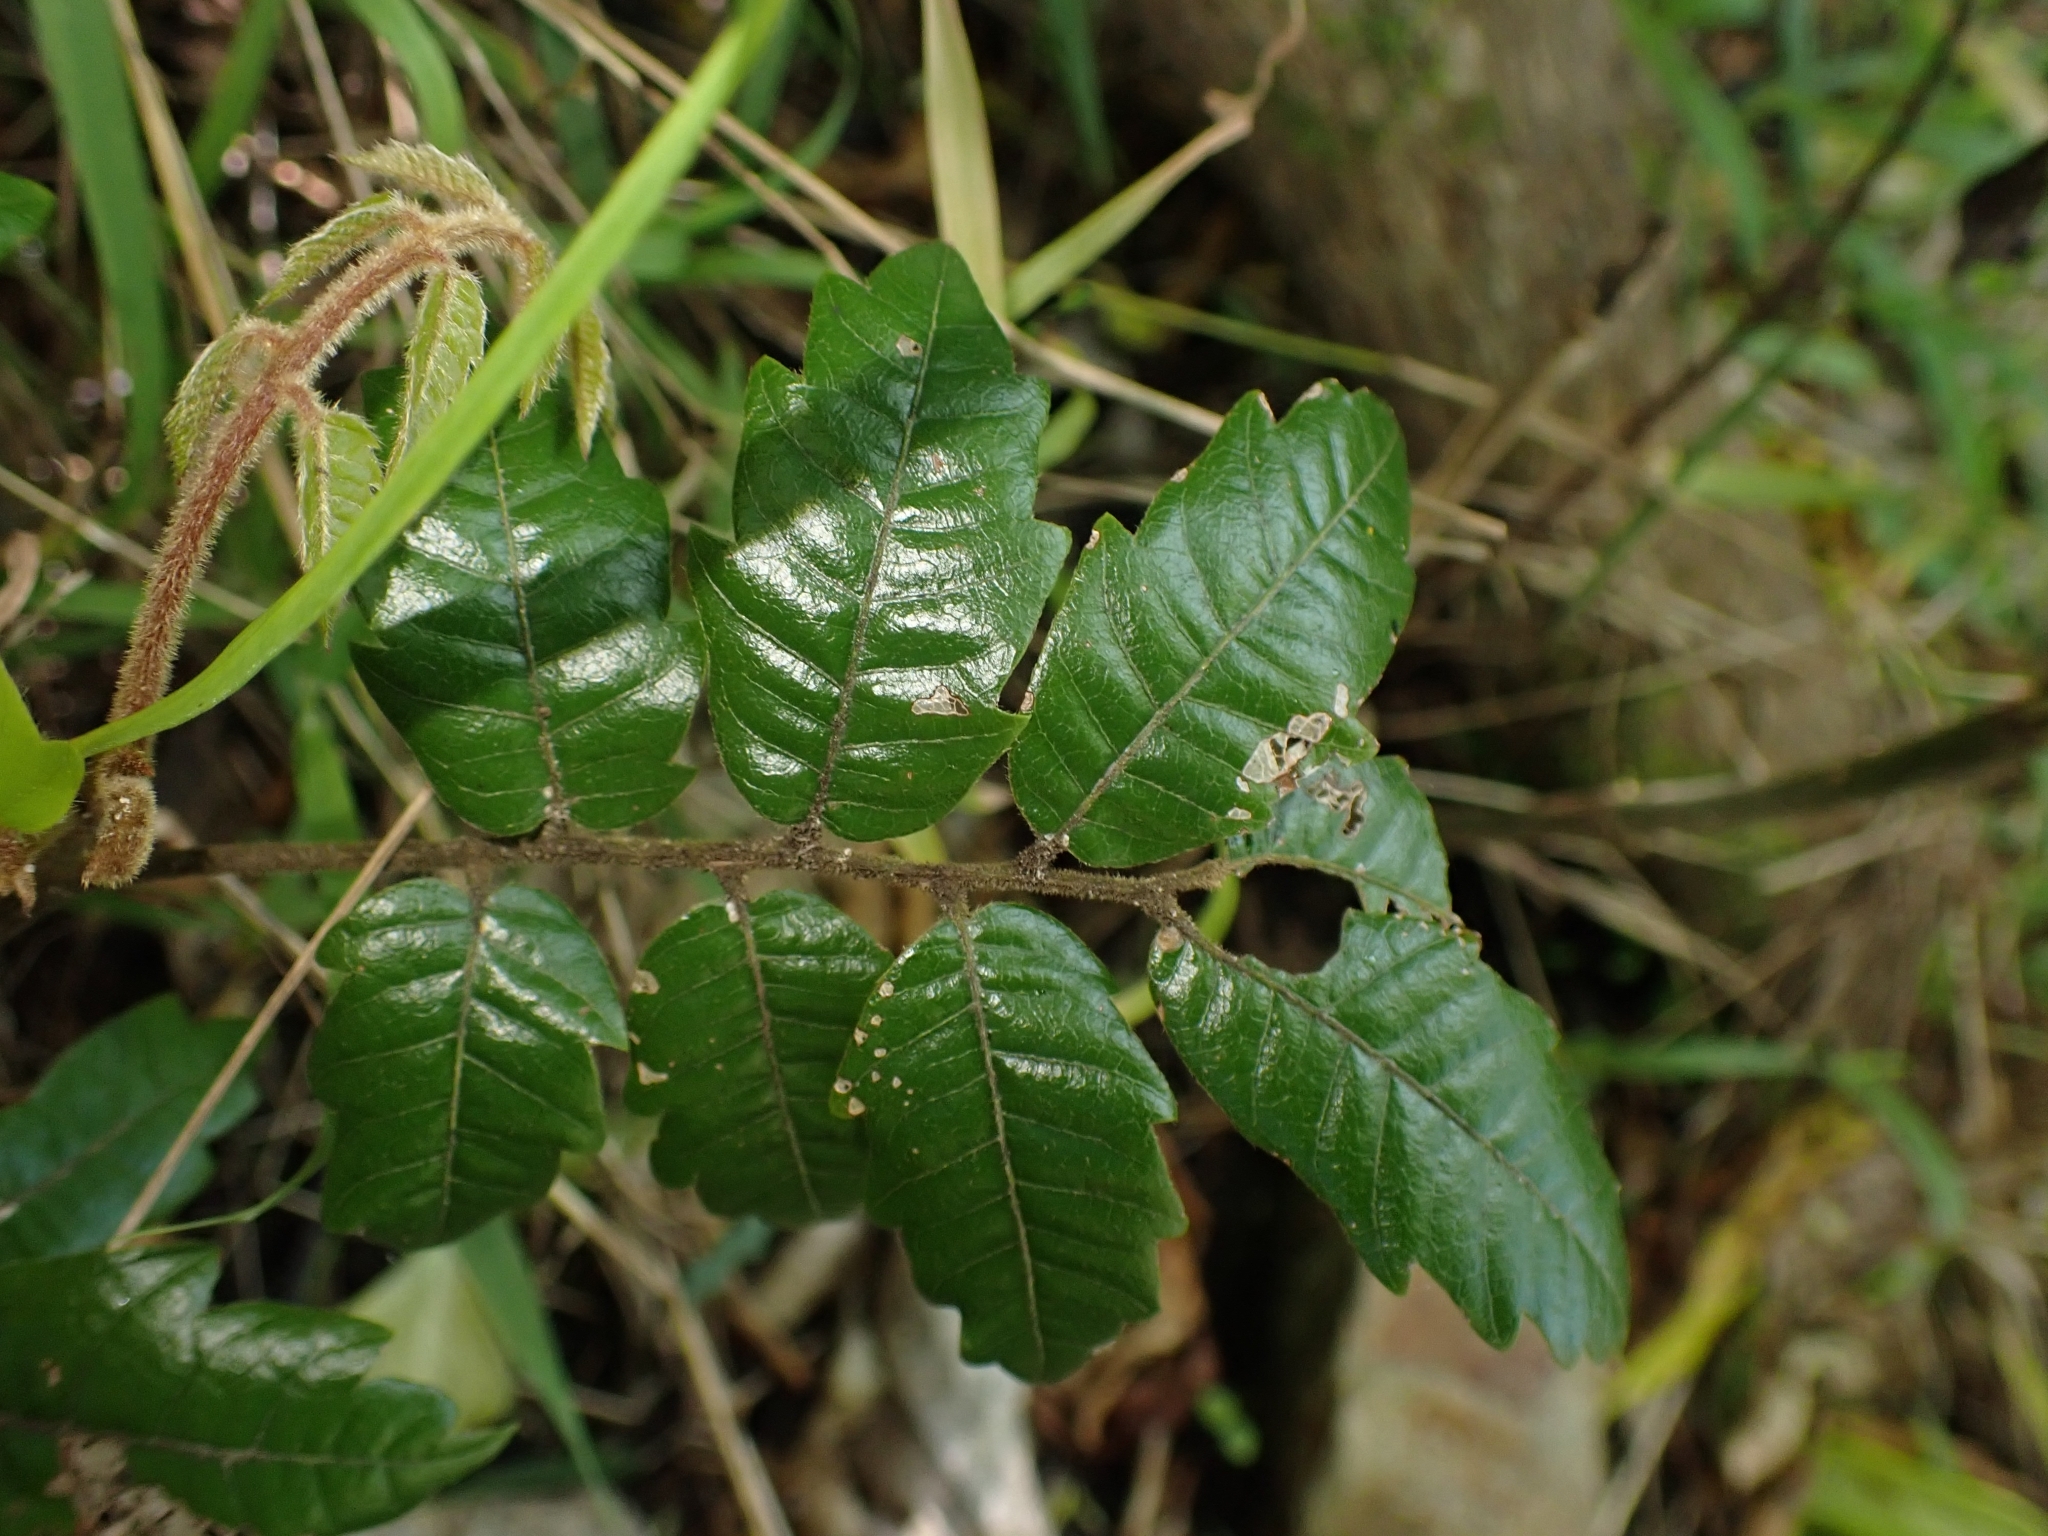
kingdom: Plantae
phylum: Tracheophyta
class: Magnoliopsida
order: Sapindales
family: Sapindaceae
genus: Alectryon
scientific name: Alectryon excelsus
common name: Three kings titoki
